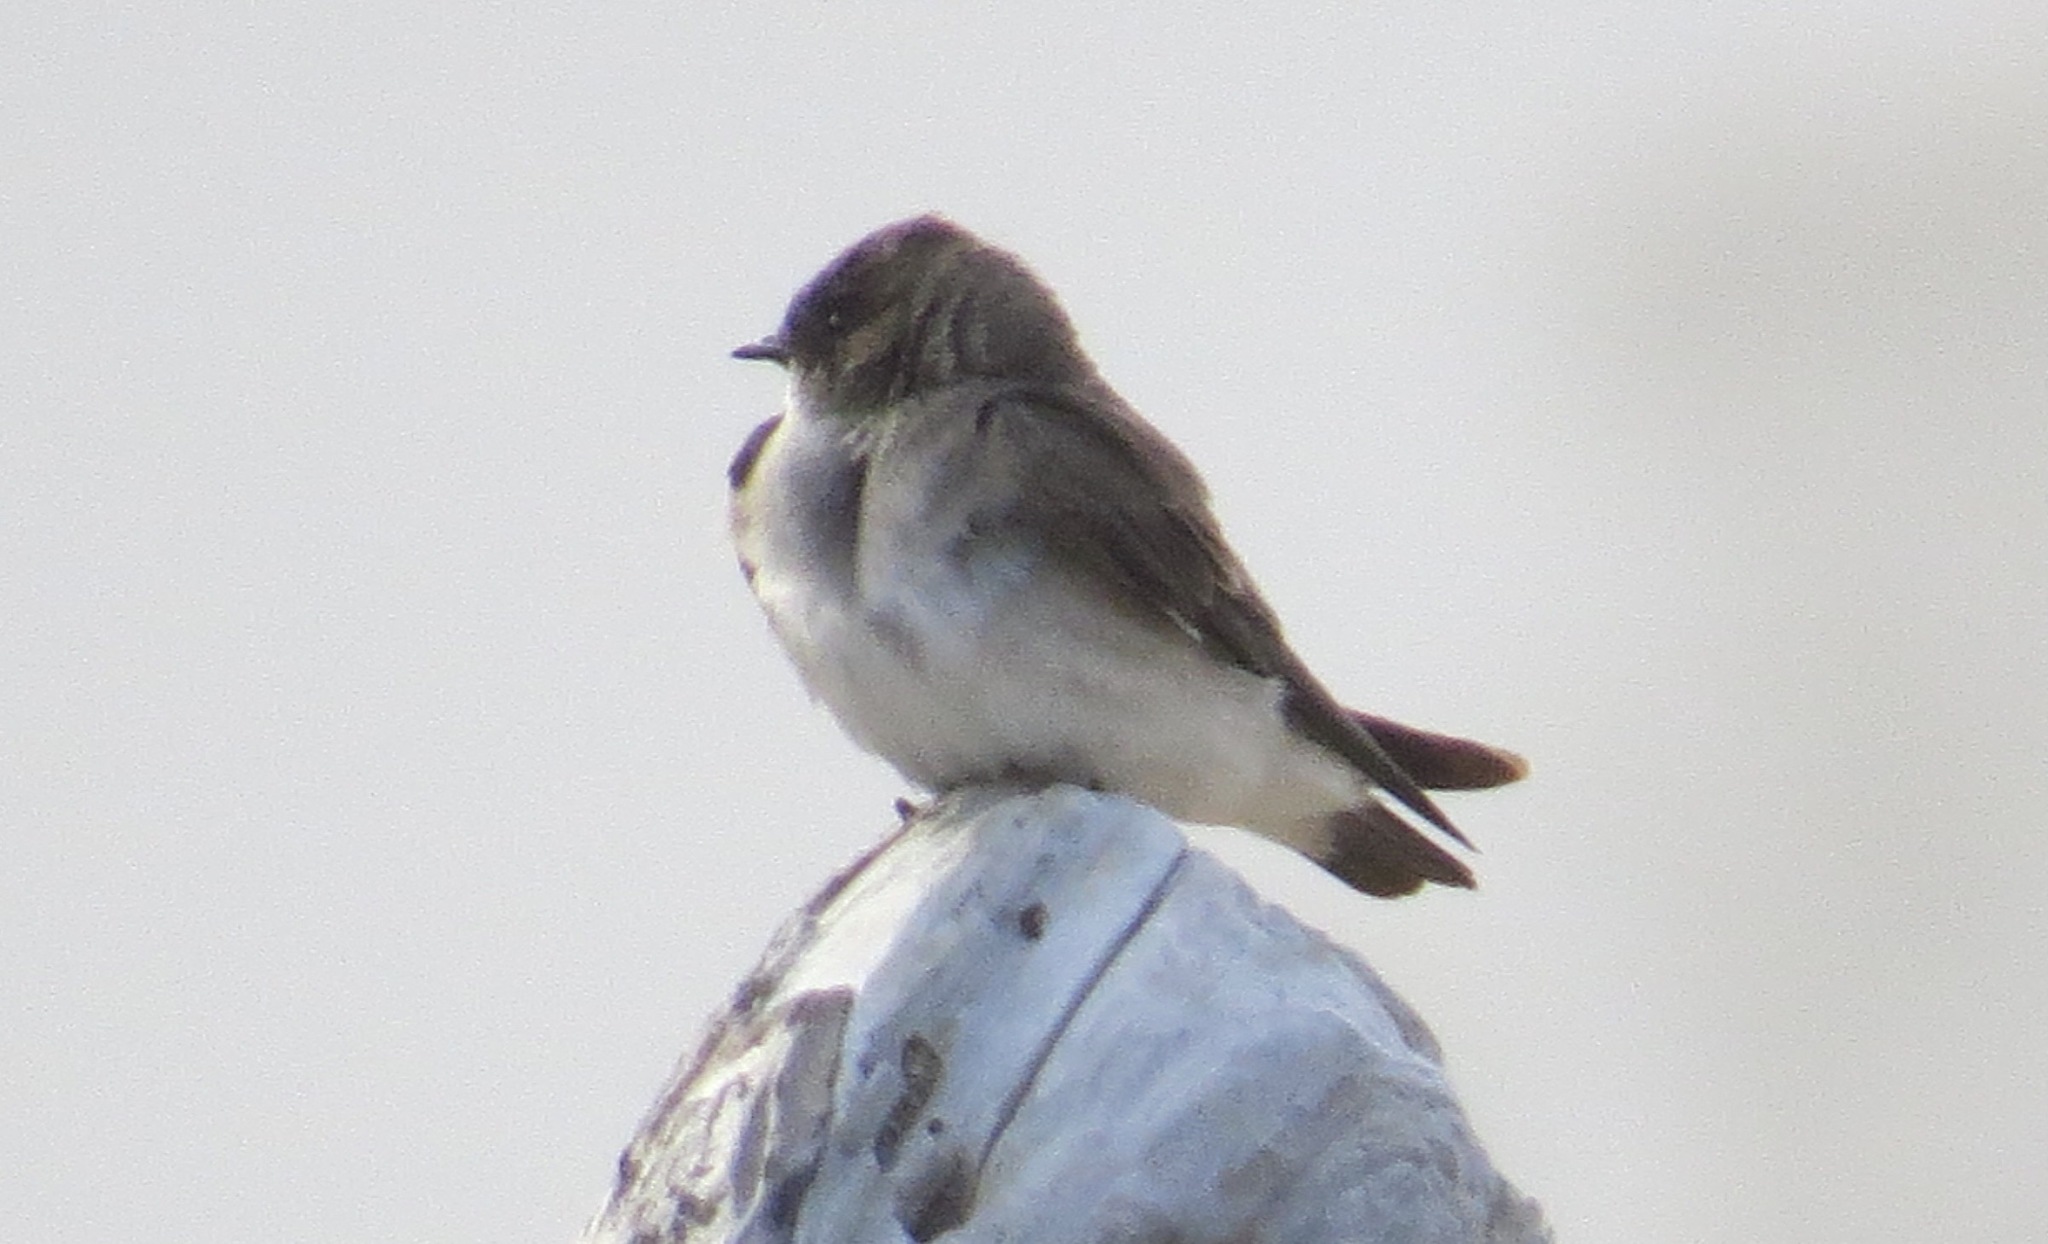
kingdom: Animalia
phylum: Chordata
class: Aves
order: Passeriformes
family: Hirundinidae
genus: Stelgidopteryx
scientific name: Stelgidopteryx serripennis
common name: Northern rough-winged swallow
